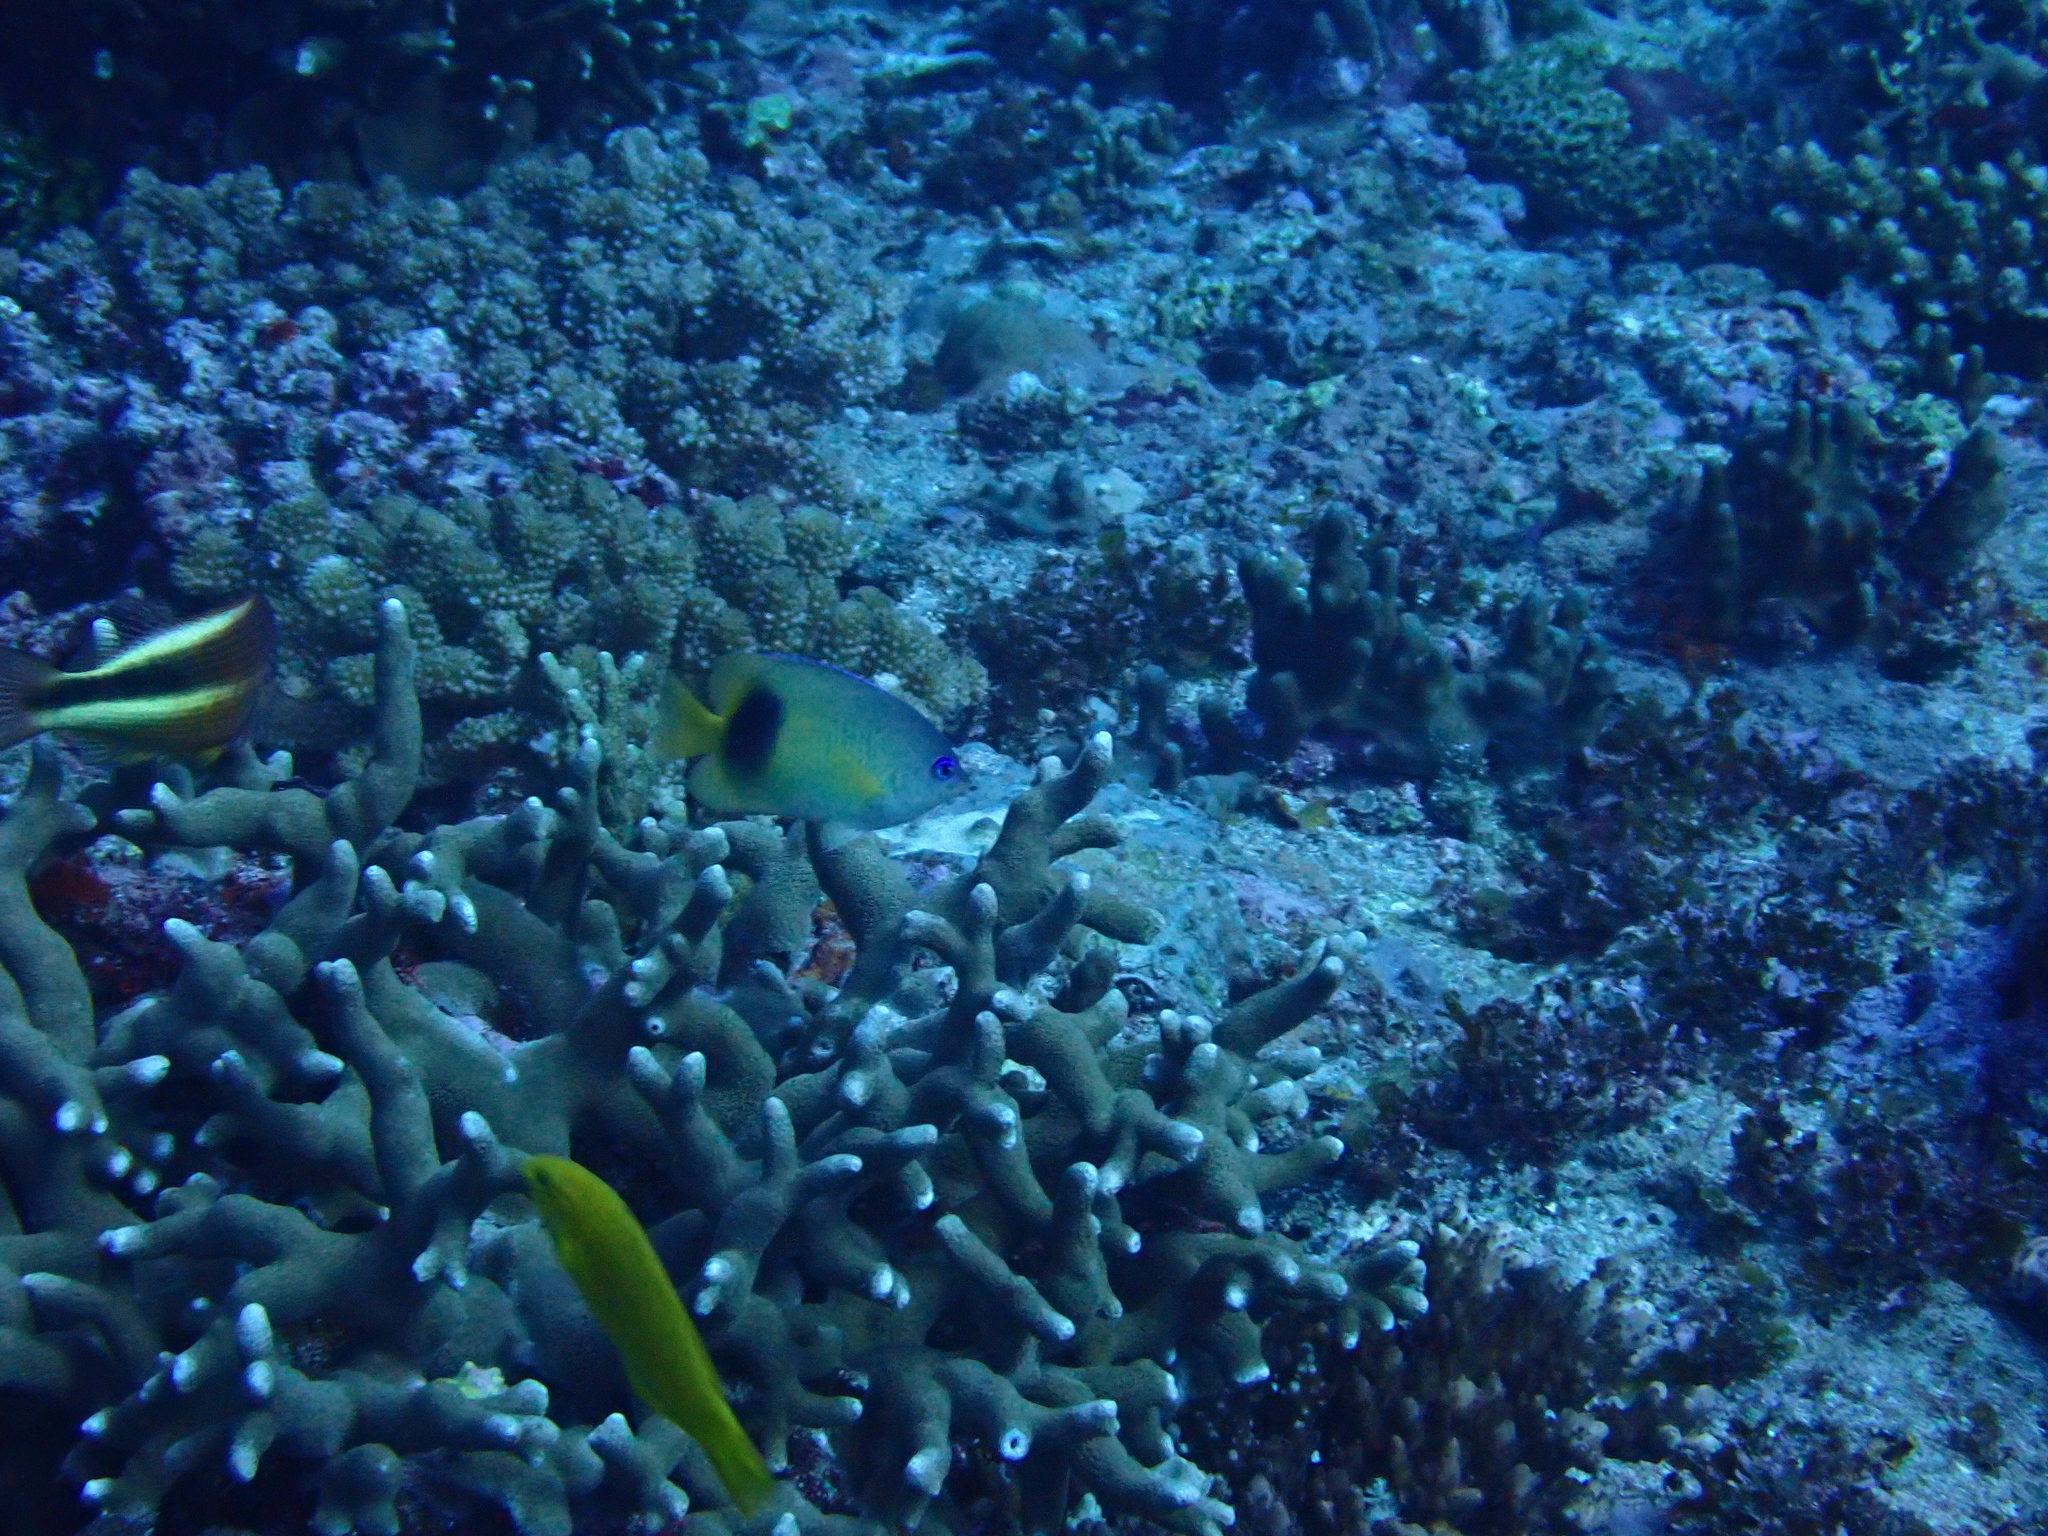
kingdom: Animalia
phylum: Chordata
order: Perciformes
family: Pomacentridae
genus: Plectroglyphidodon
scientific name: Plectroglyphidodon johnstonianus
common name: Johnston damsel
